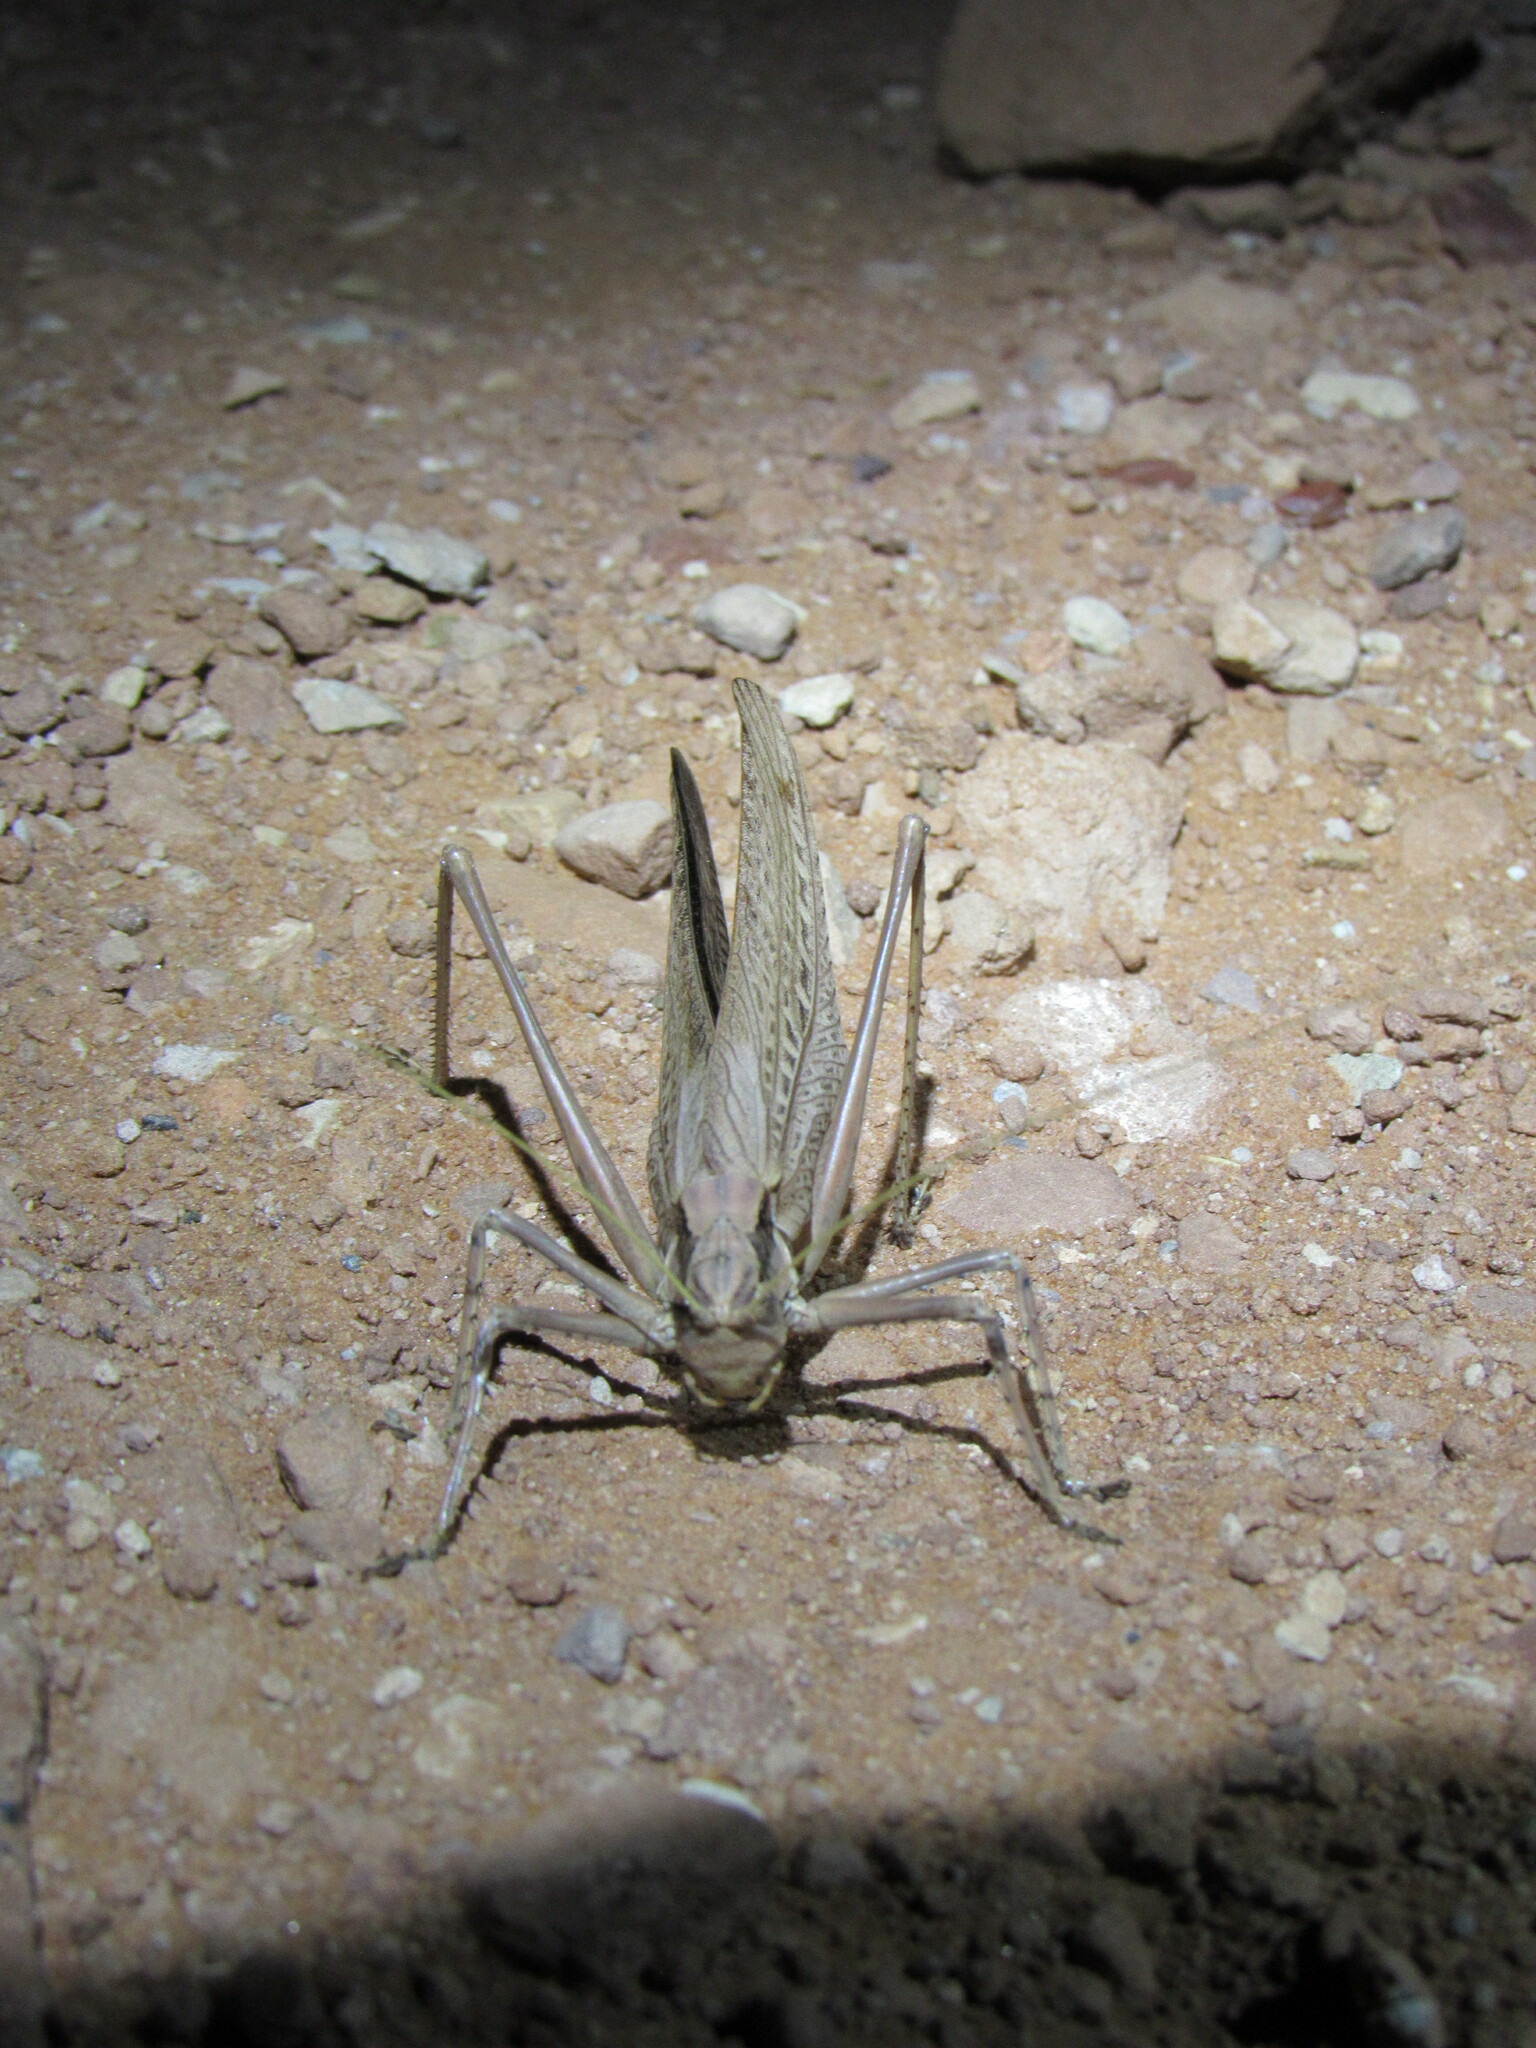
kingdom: Animalia
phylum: Arthropoda
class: Insecta
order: Orthoptera
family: Tettigoniidae
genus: Capnobotes
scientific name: Capnobotes fuliginosus
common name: Sooty longwing
